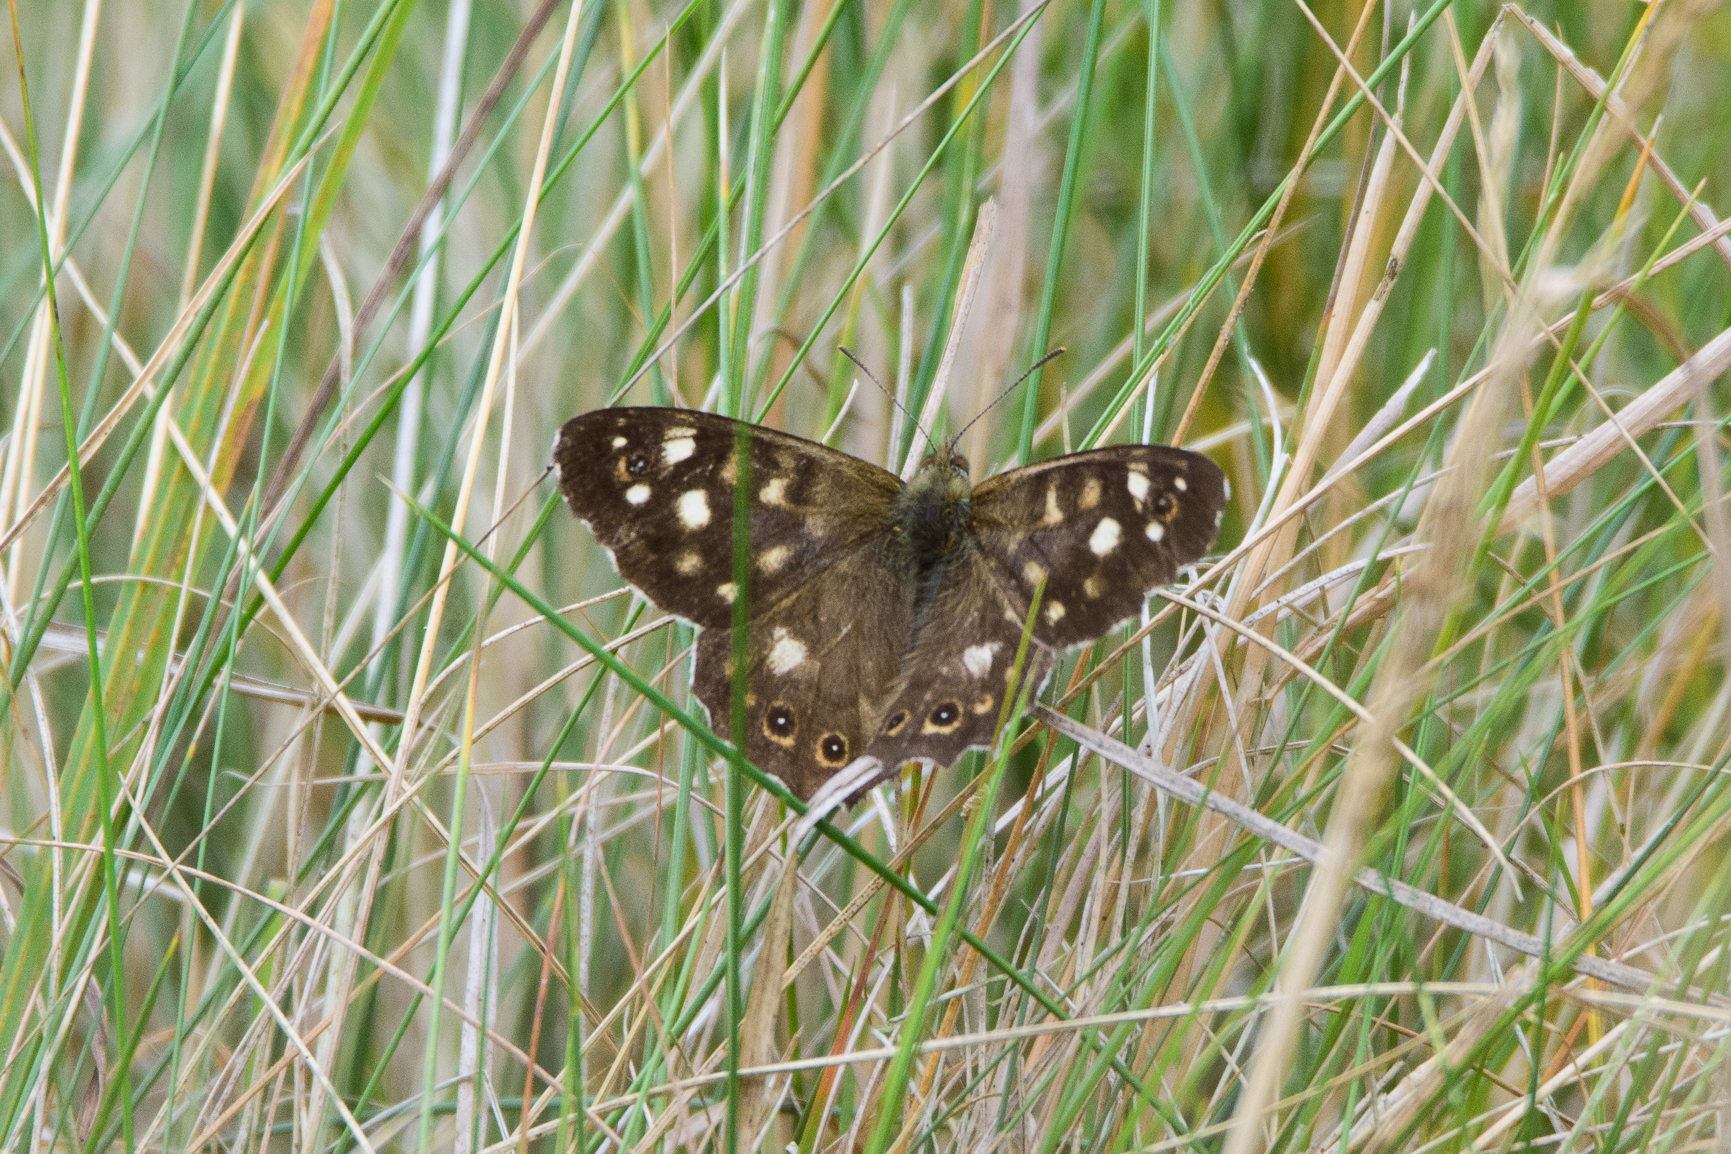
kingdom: Animalia
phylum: Arthropoda
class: Insecta
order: Lepidoptera
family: Nymphalidae
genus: Pararge
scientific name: Pararge aegeria
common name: Speckled wood
